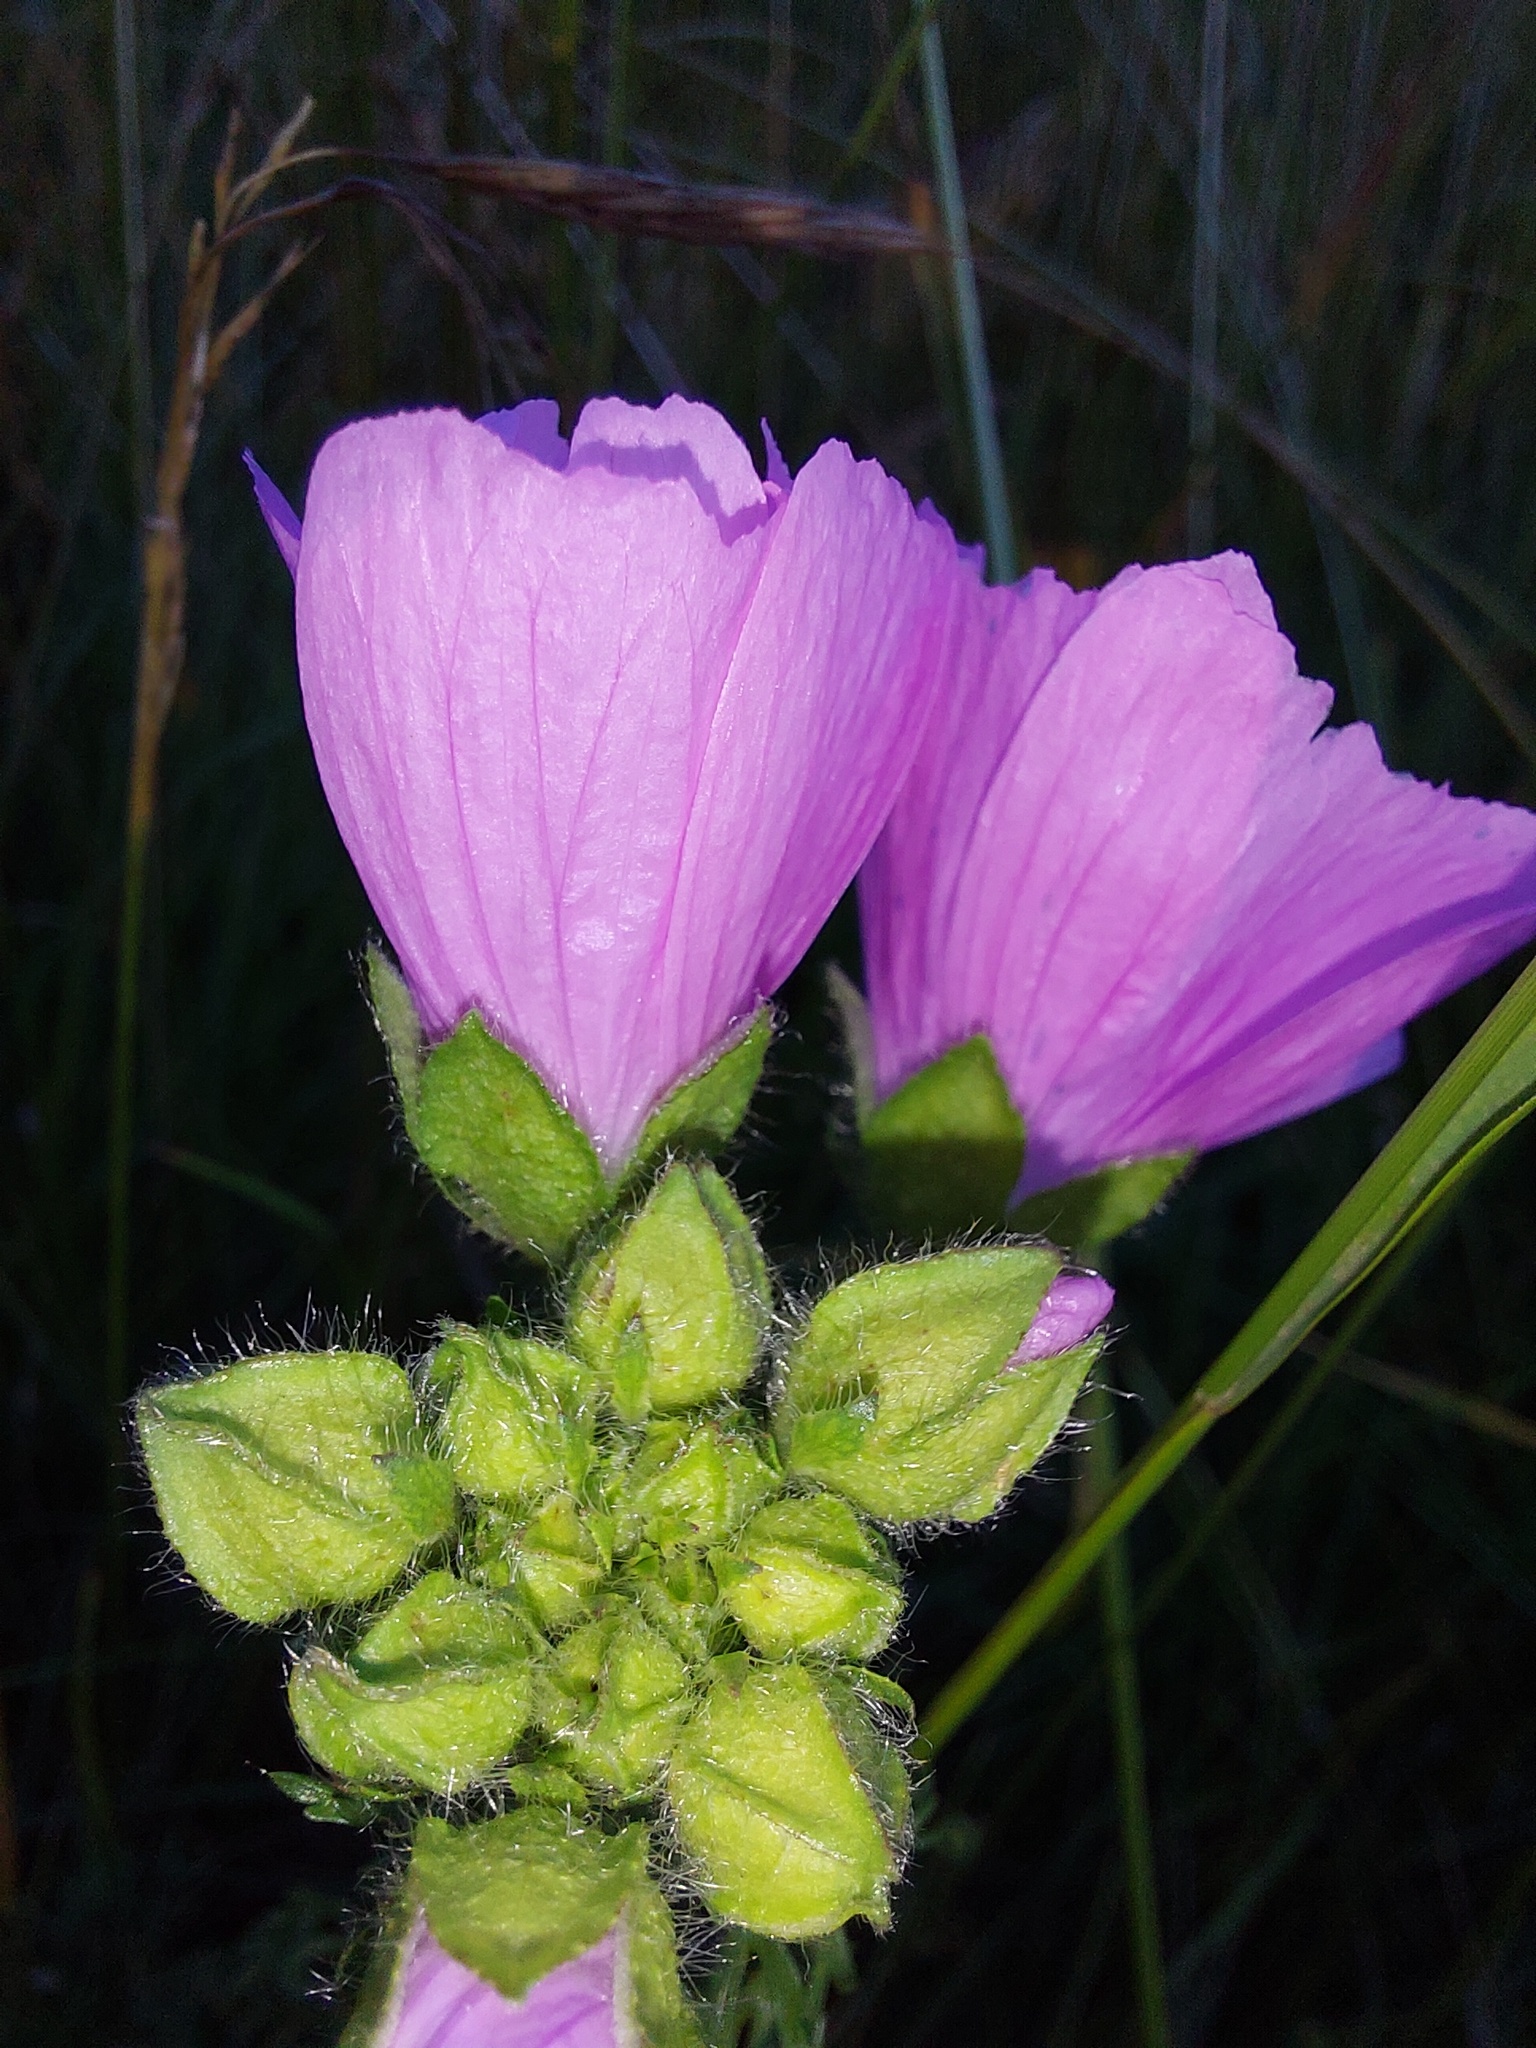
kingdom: Plantae
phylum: Tracheophyta
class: Magnoliopsida
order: Malvales
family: Malvaceae
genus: Malva
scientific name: Malva moschata
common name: Musk mallow
